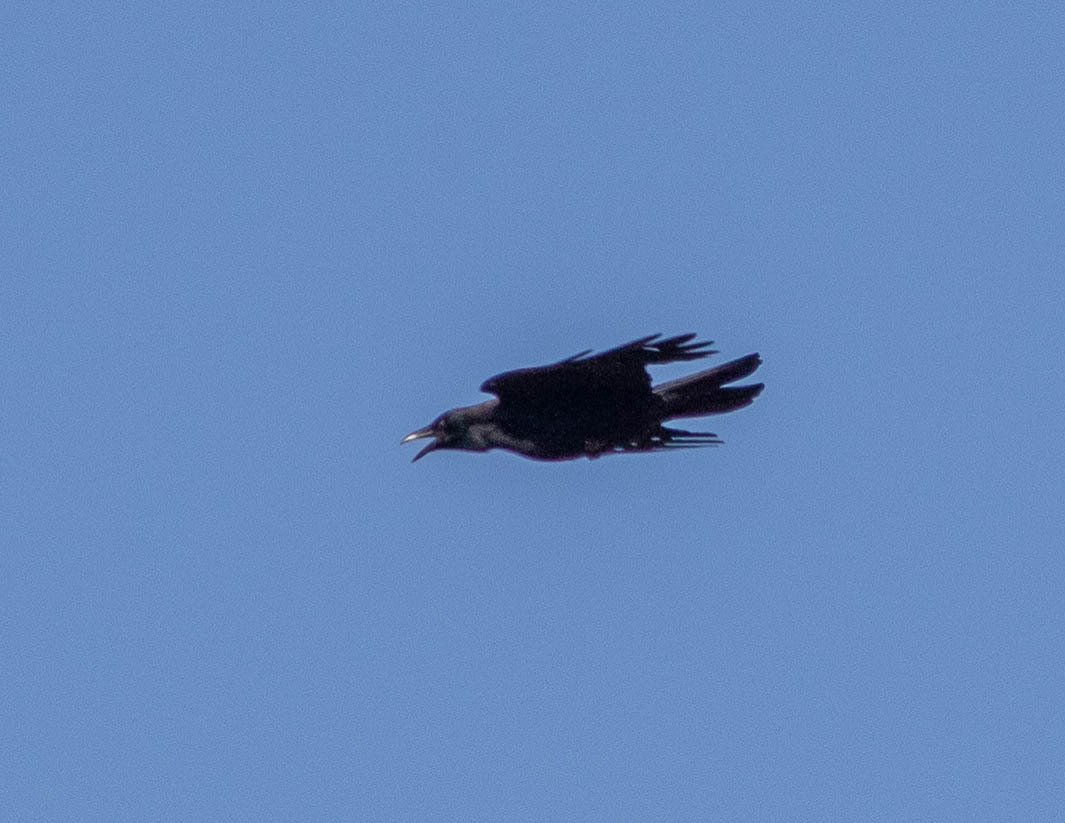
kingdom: Animalia
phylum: Chordata
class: Aves
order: Passeriformes
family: Corvidae
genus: Corvus
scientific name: Corvus brachyrhynchos
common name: American crow
